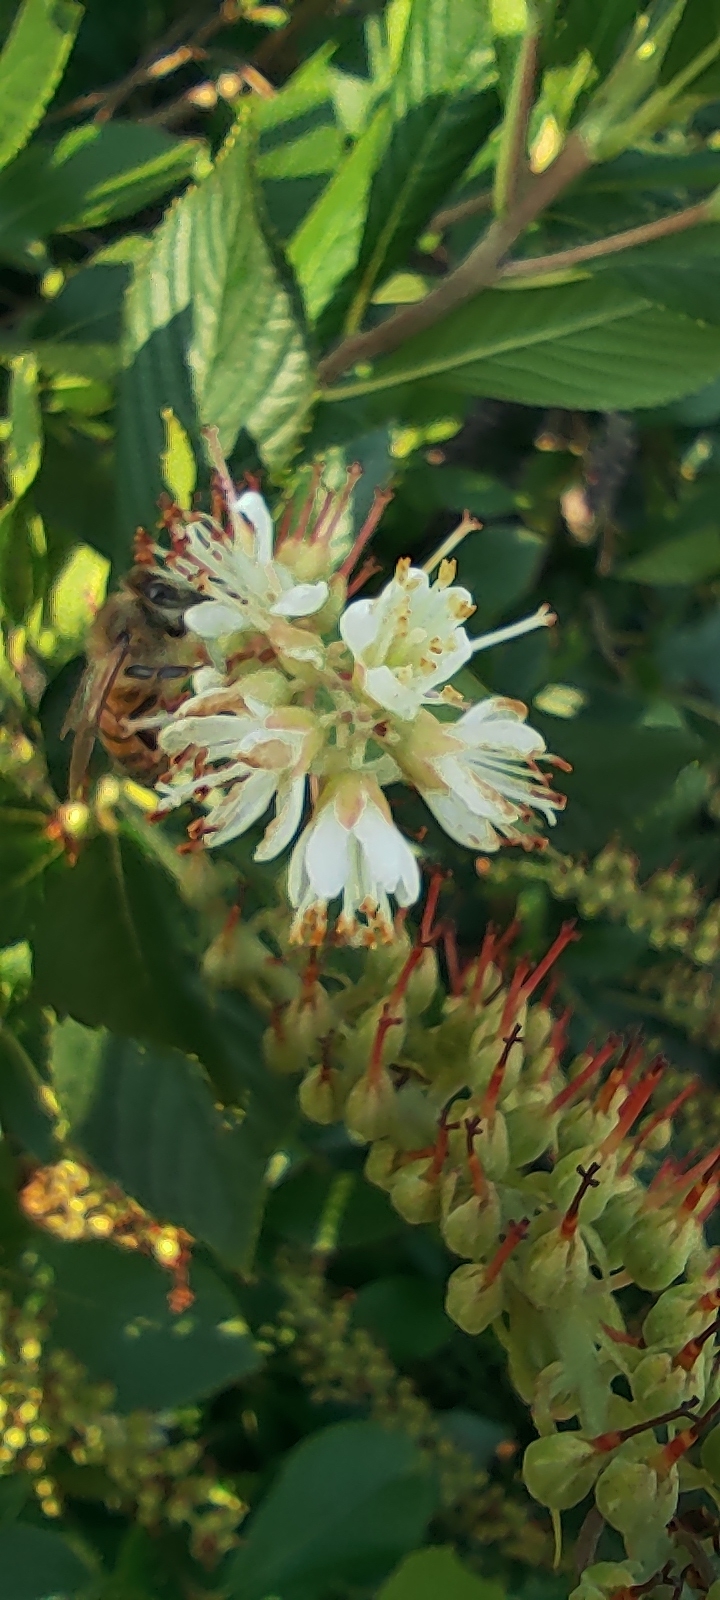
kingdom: Animalia
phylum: Arthropoda
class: Insecta
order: Hymenoptera
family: Apidae
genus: Apis
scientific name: Apis mellifera
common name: Honey bee
